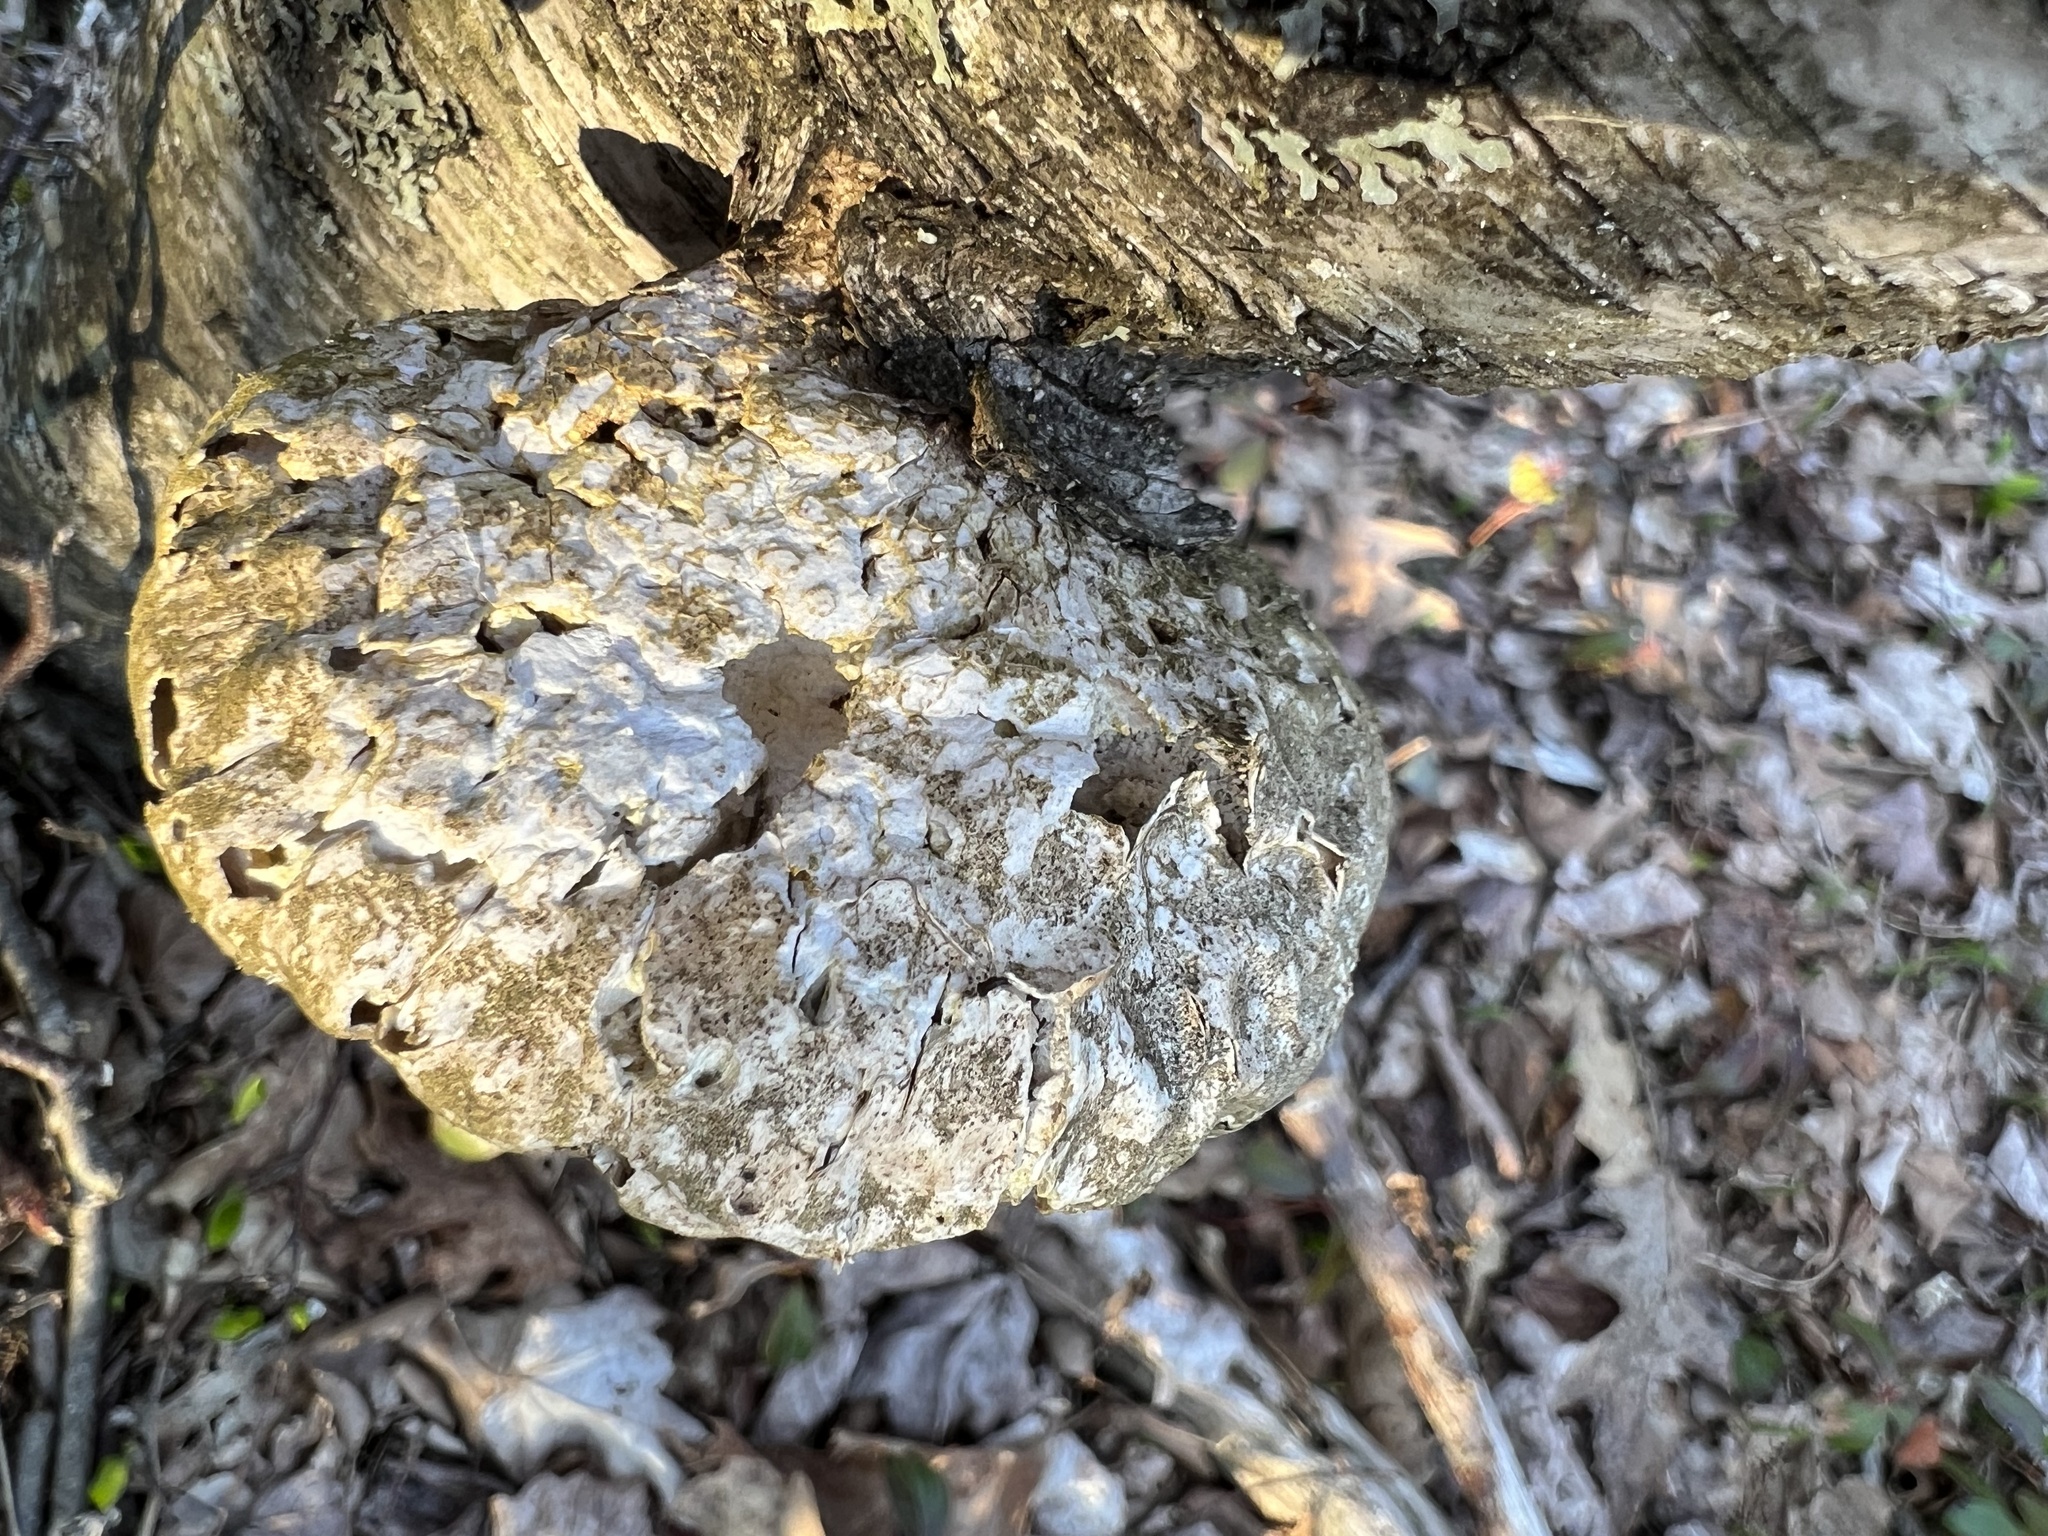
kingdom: Fungi
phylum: Basidiomycota
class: Agaricomycetes
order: Polyporales
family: Fomitopsidaceae
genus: Fomitopsis
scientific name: Fomitopsis betulina
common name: Birch polypore
